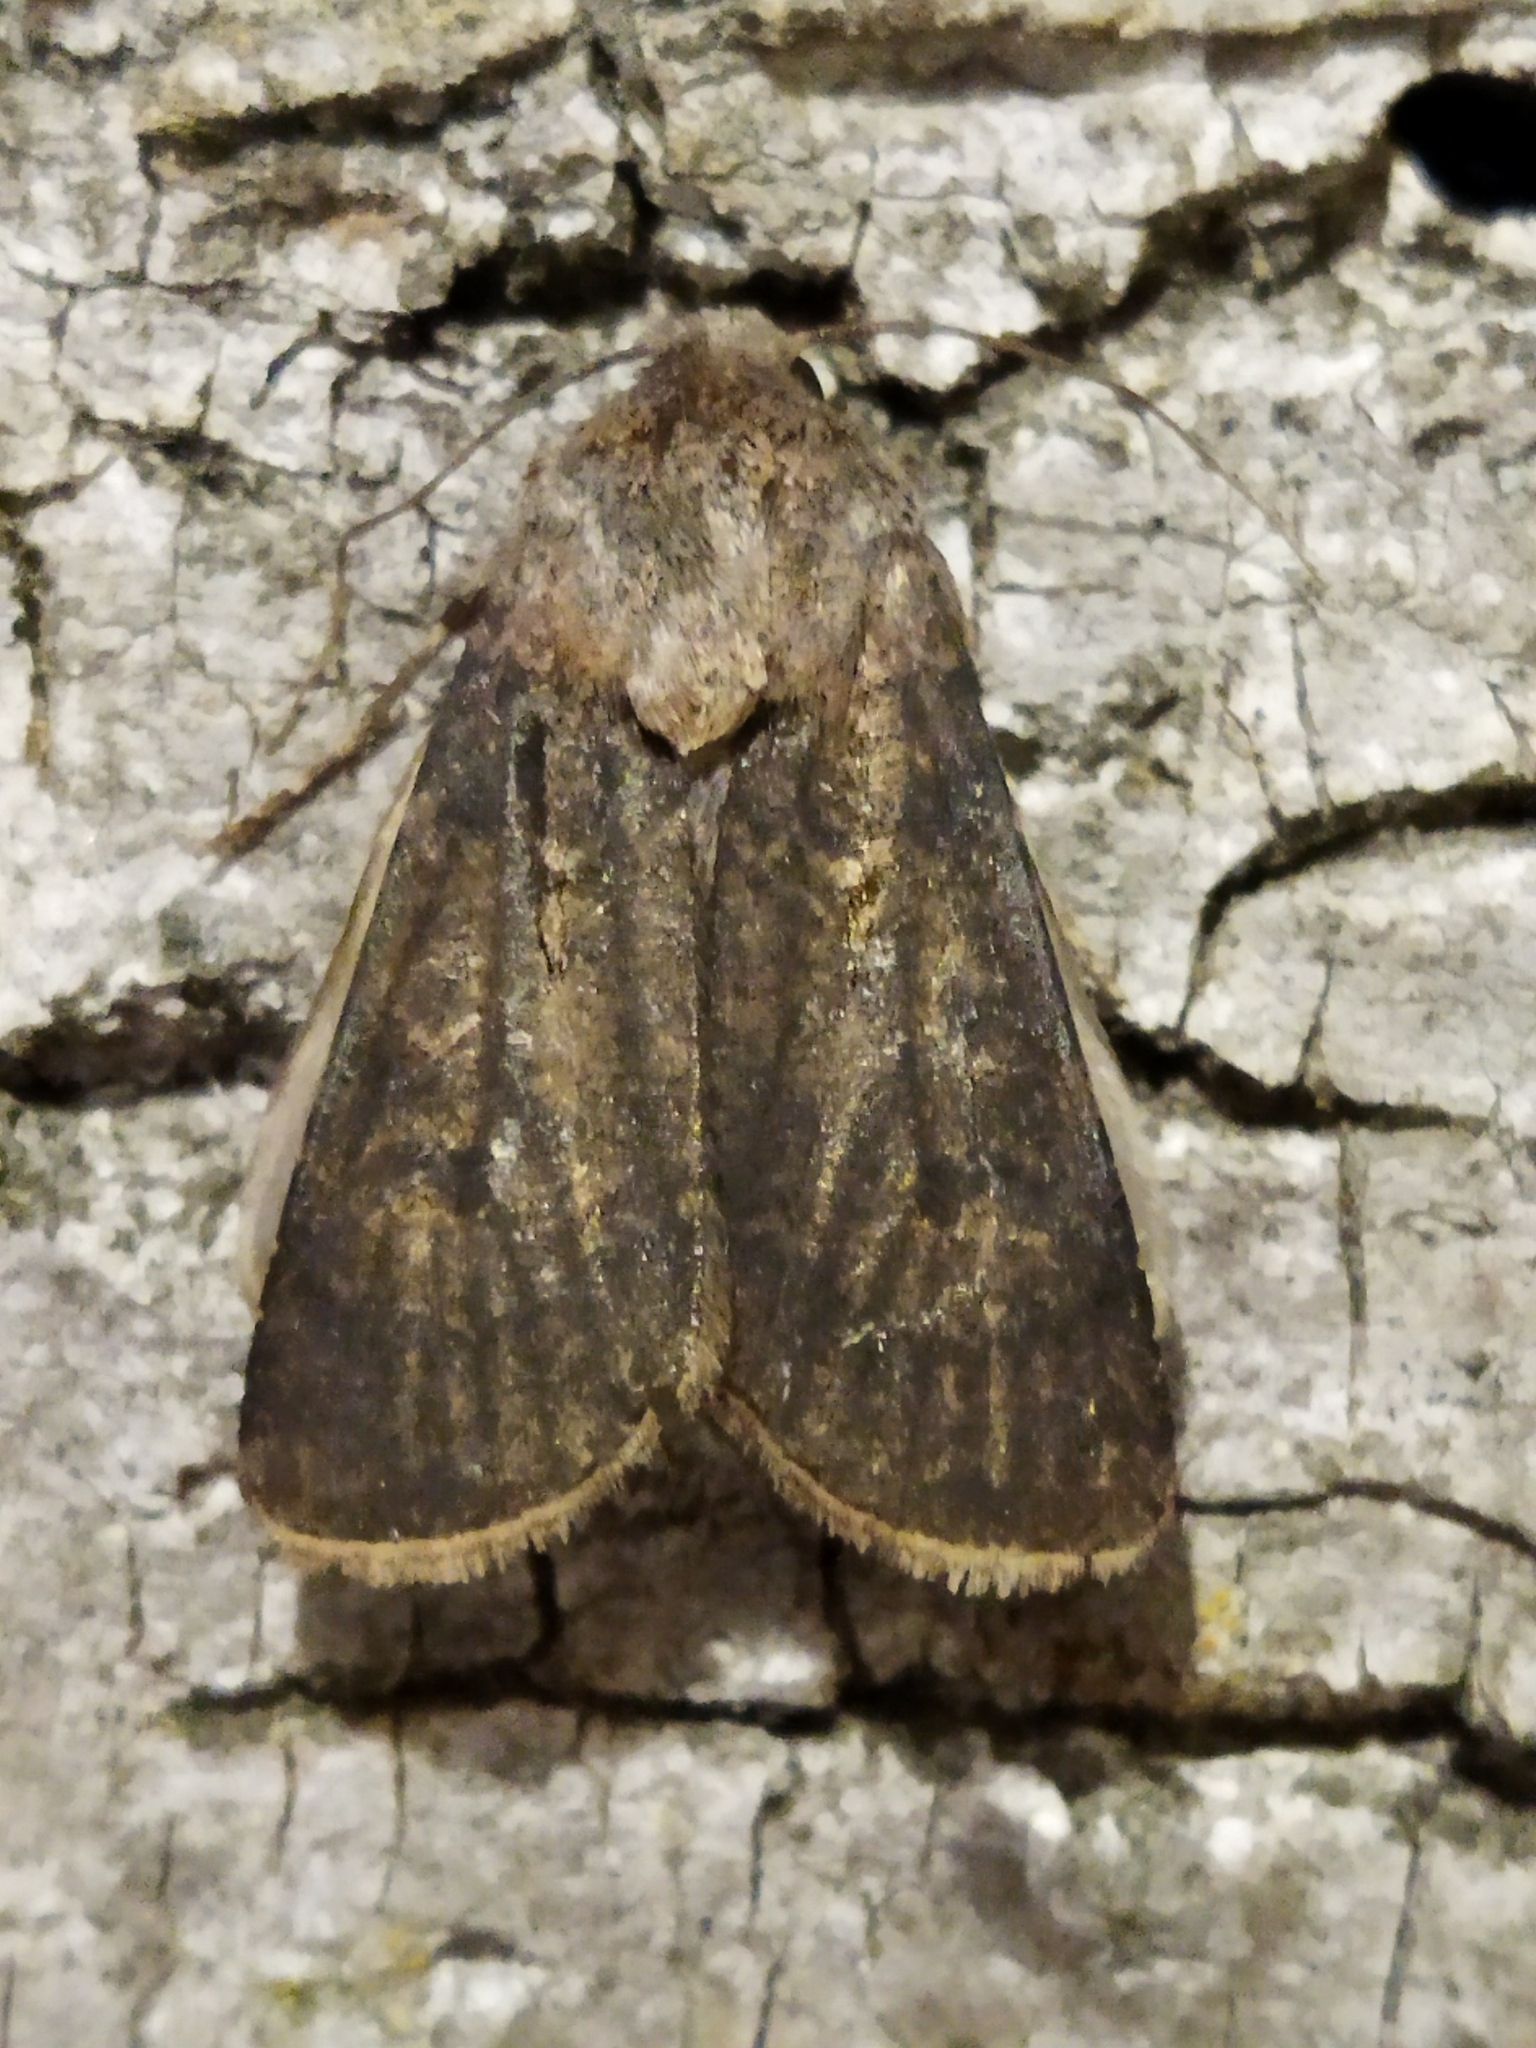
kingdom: Animalia
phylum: Arthropoda
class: Insecta
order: Lepidoptera
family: Noctuidae
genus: Agrotis
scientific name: Agrotis segetum
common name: Turnip moth
